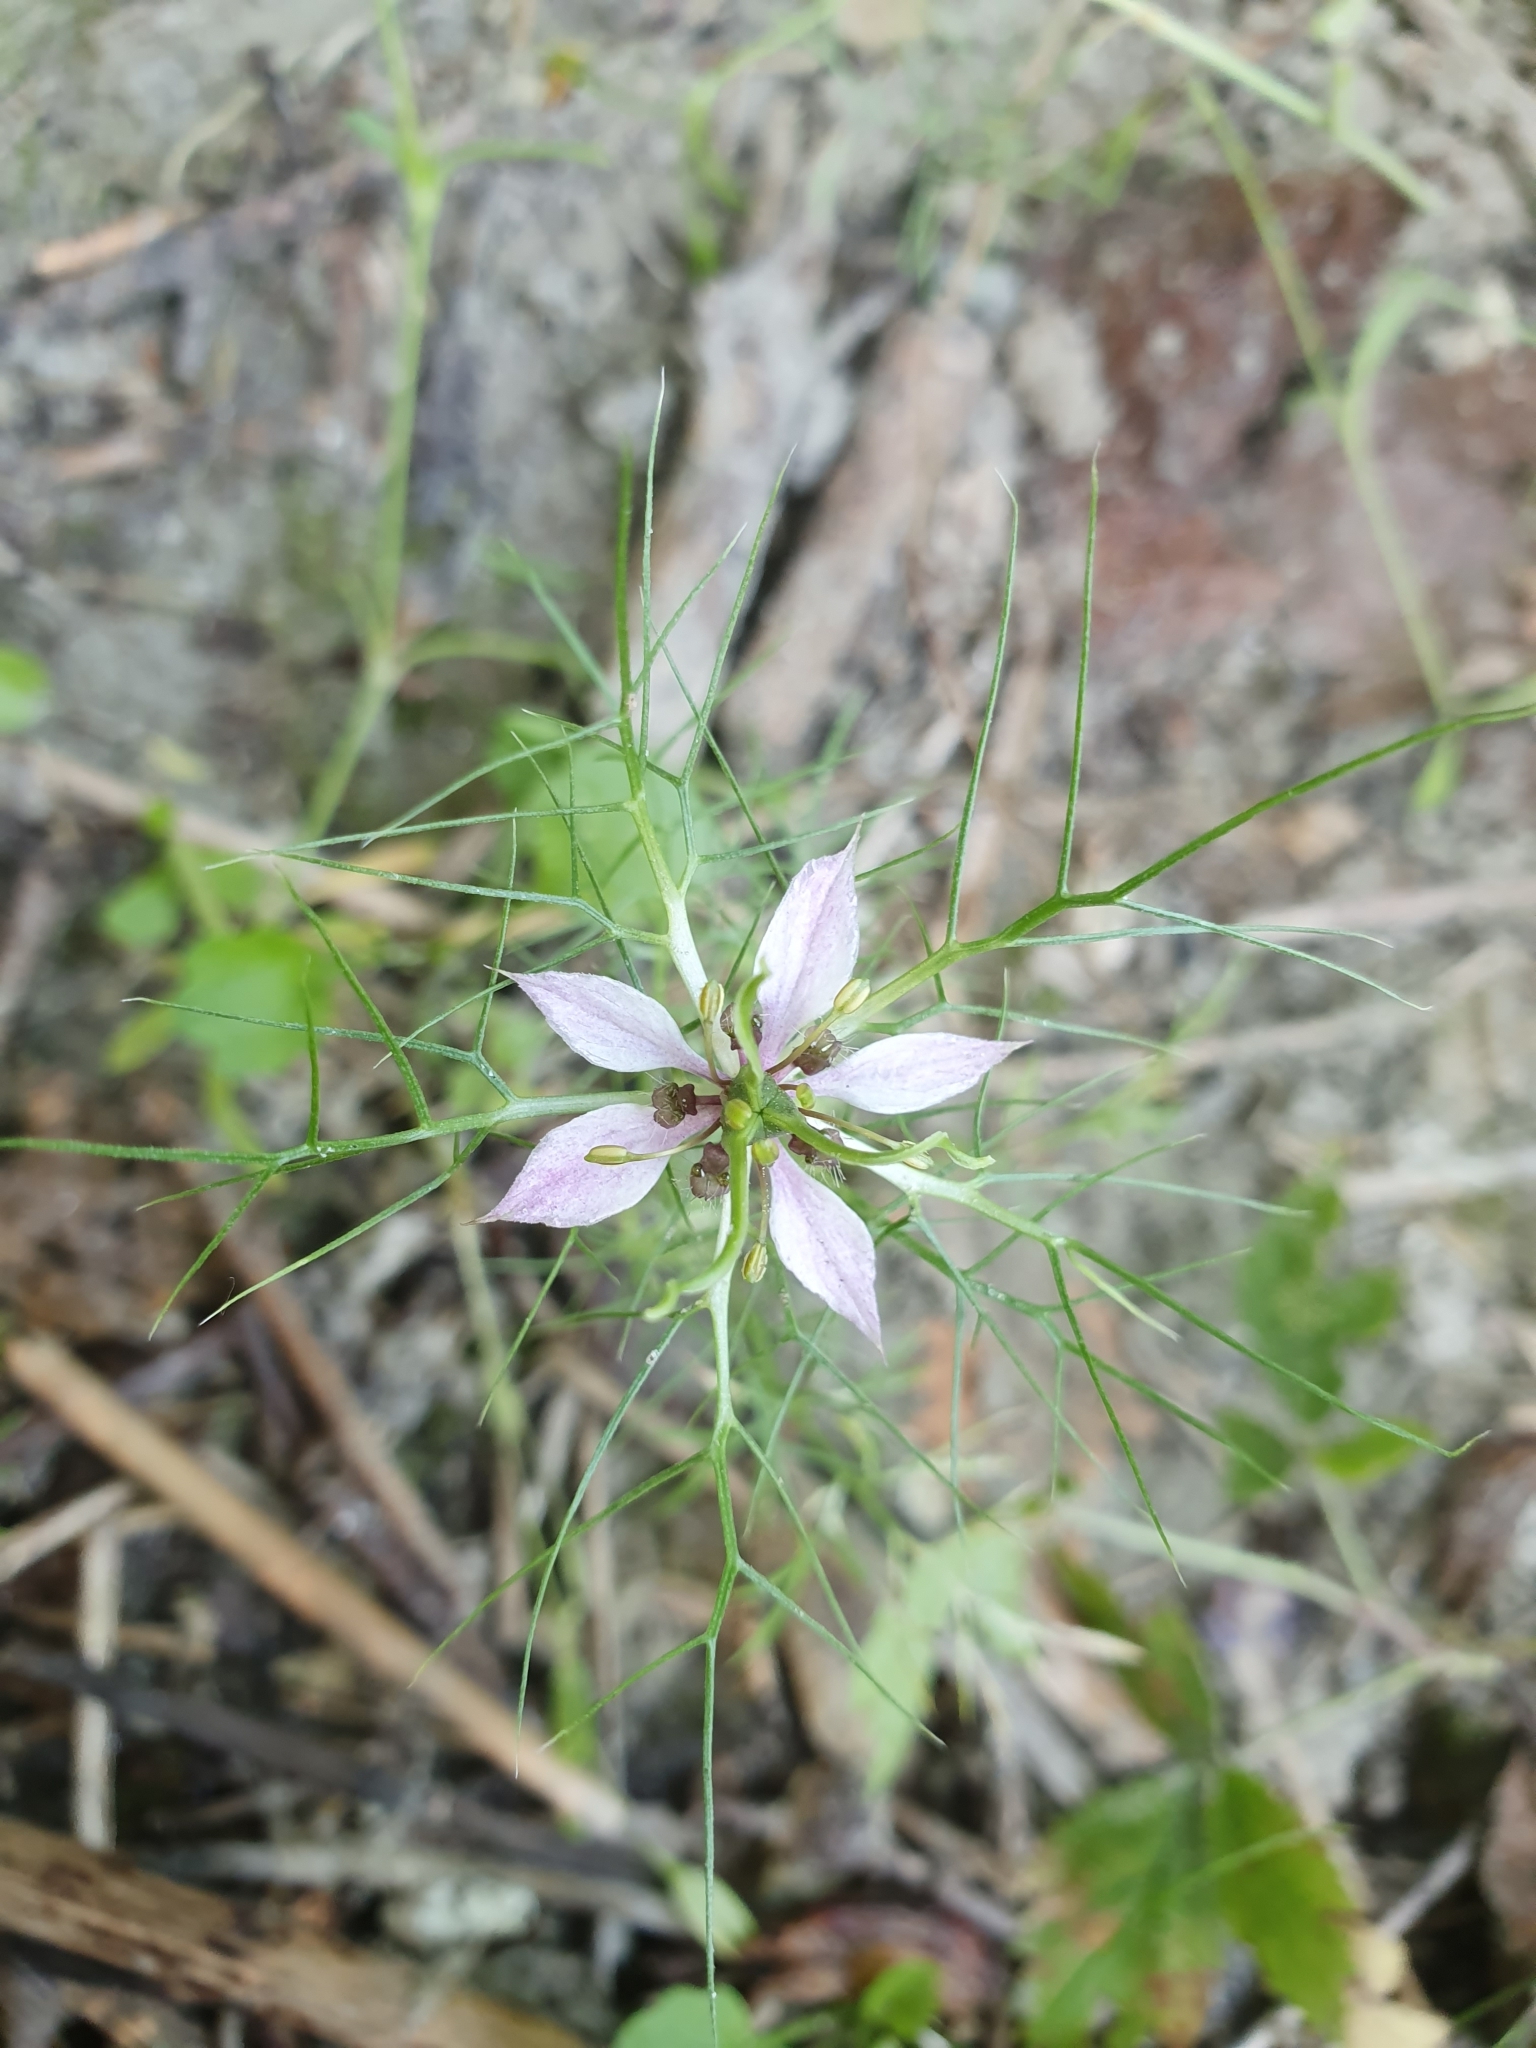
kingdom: Plantae
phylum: Tracheophyta
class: Magnoliopsida
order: Ranunculales
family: Ranunculaceae
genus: Nigella
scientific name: Nigella damascena
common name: Love-in-a-mist
